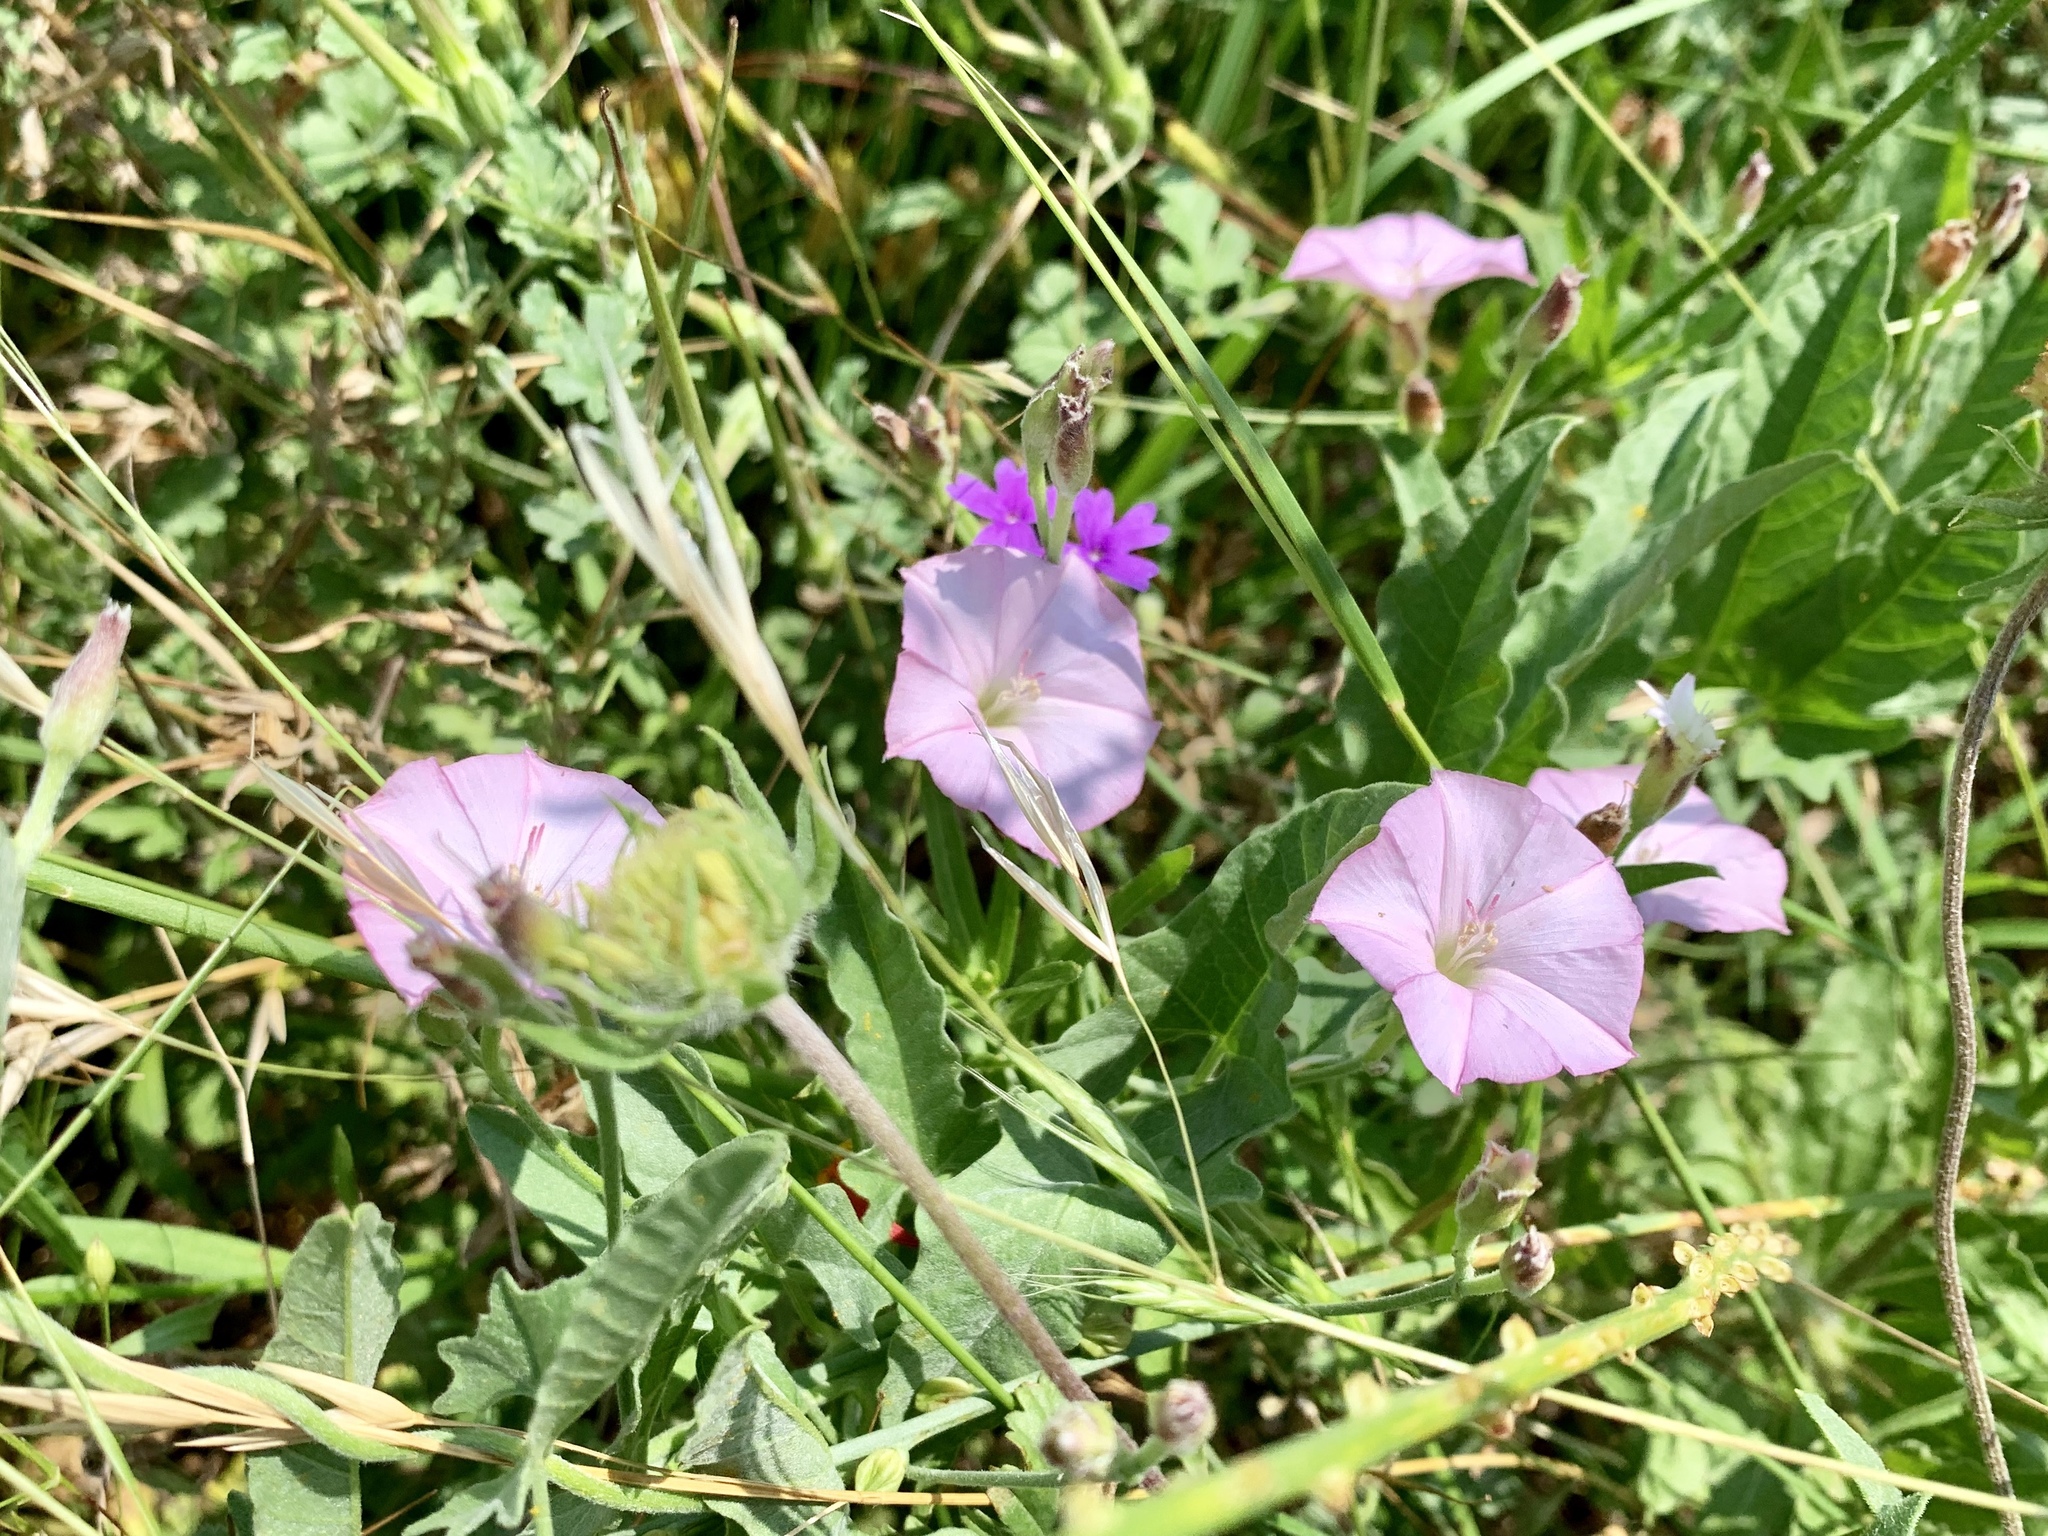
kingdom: Plantae
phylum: Tracheophyta
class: Magnoliopsida
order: Solanales
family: Convolvulaceae
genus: Convolvulus
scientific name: Convolvulus arvensis
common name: Field bindweed
